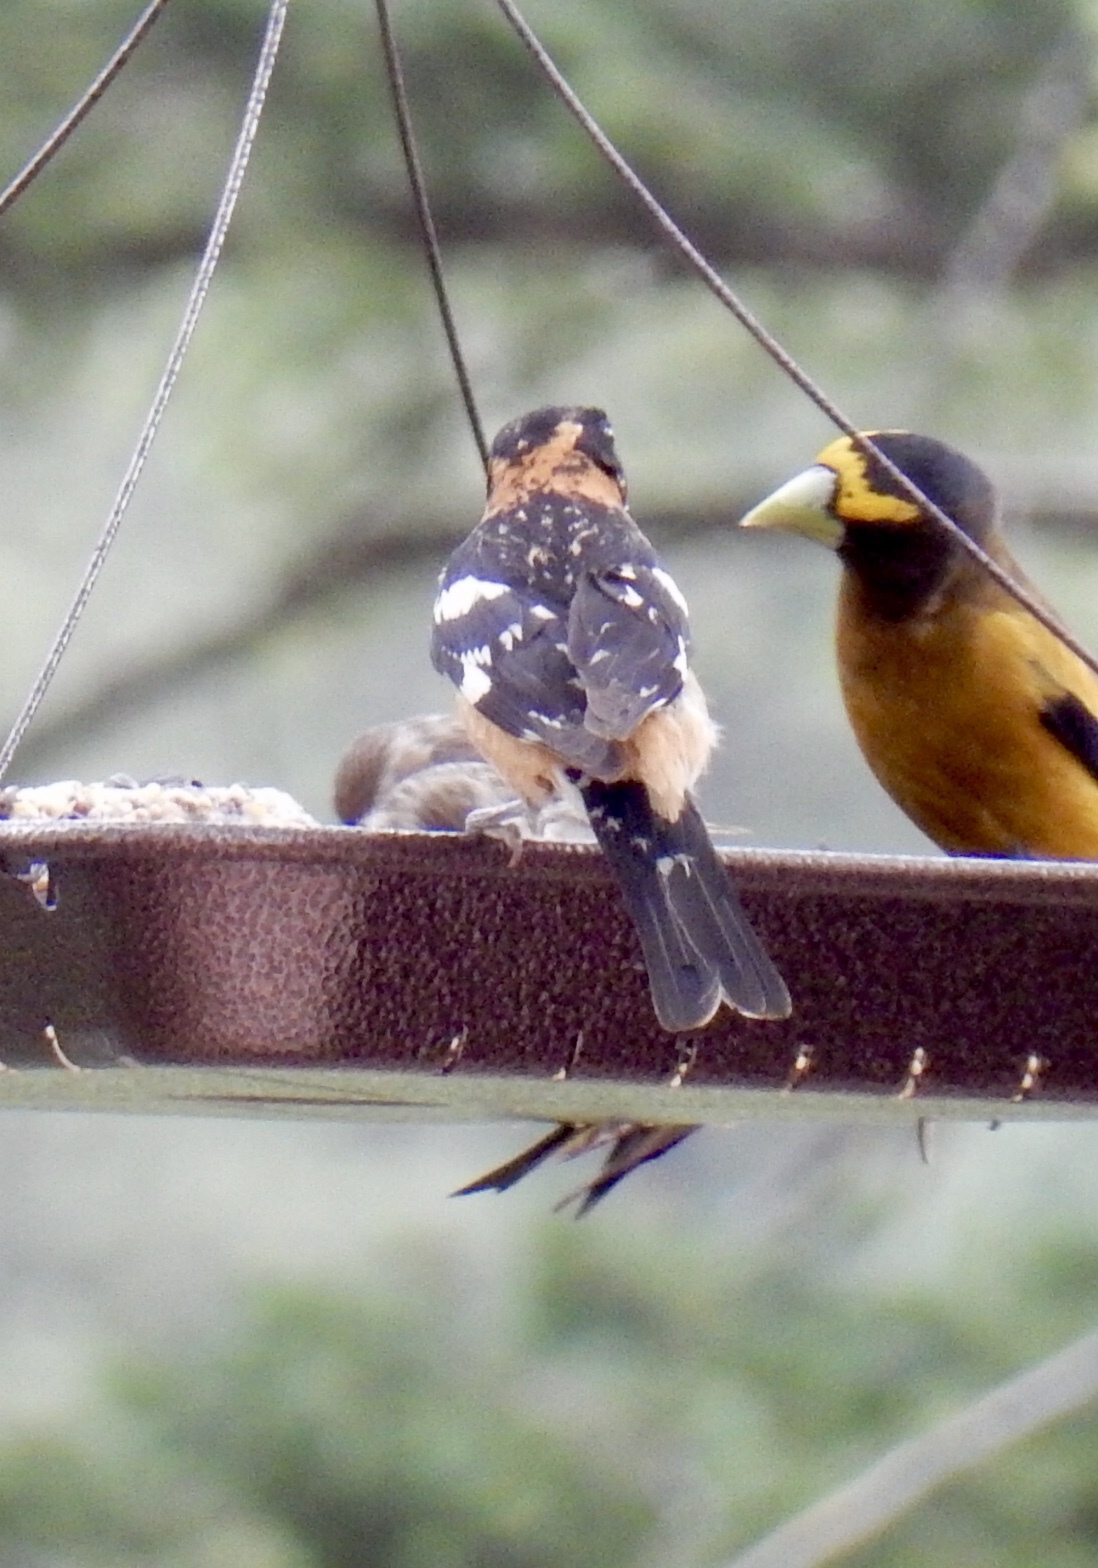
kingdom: Animalia
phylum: Chordata
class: Aves
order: Passeriformes
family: Cardinalidae
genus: Pheucticus
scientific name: Pheucticus melanocephalus
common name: Black-headed grosbeak
